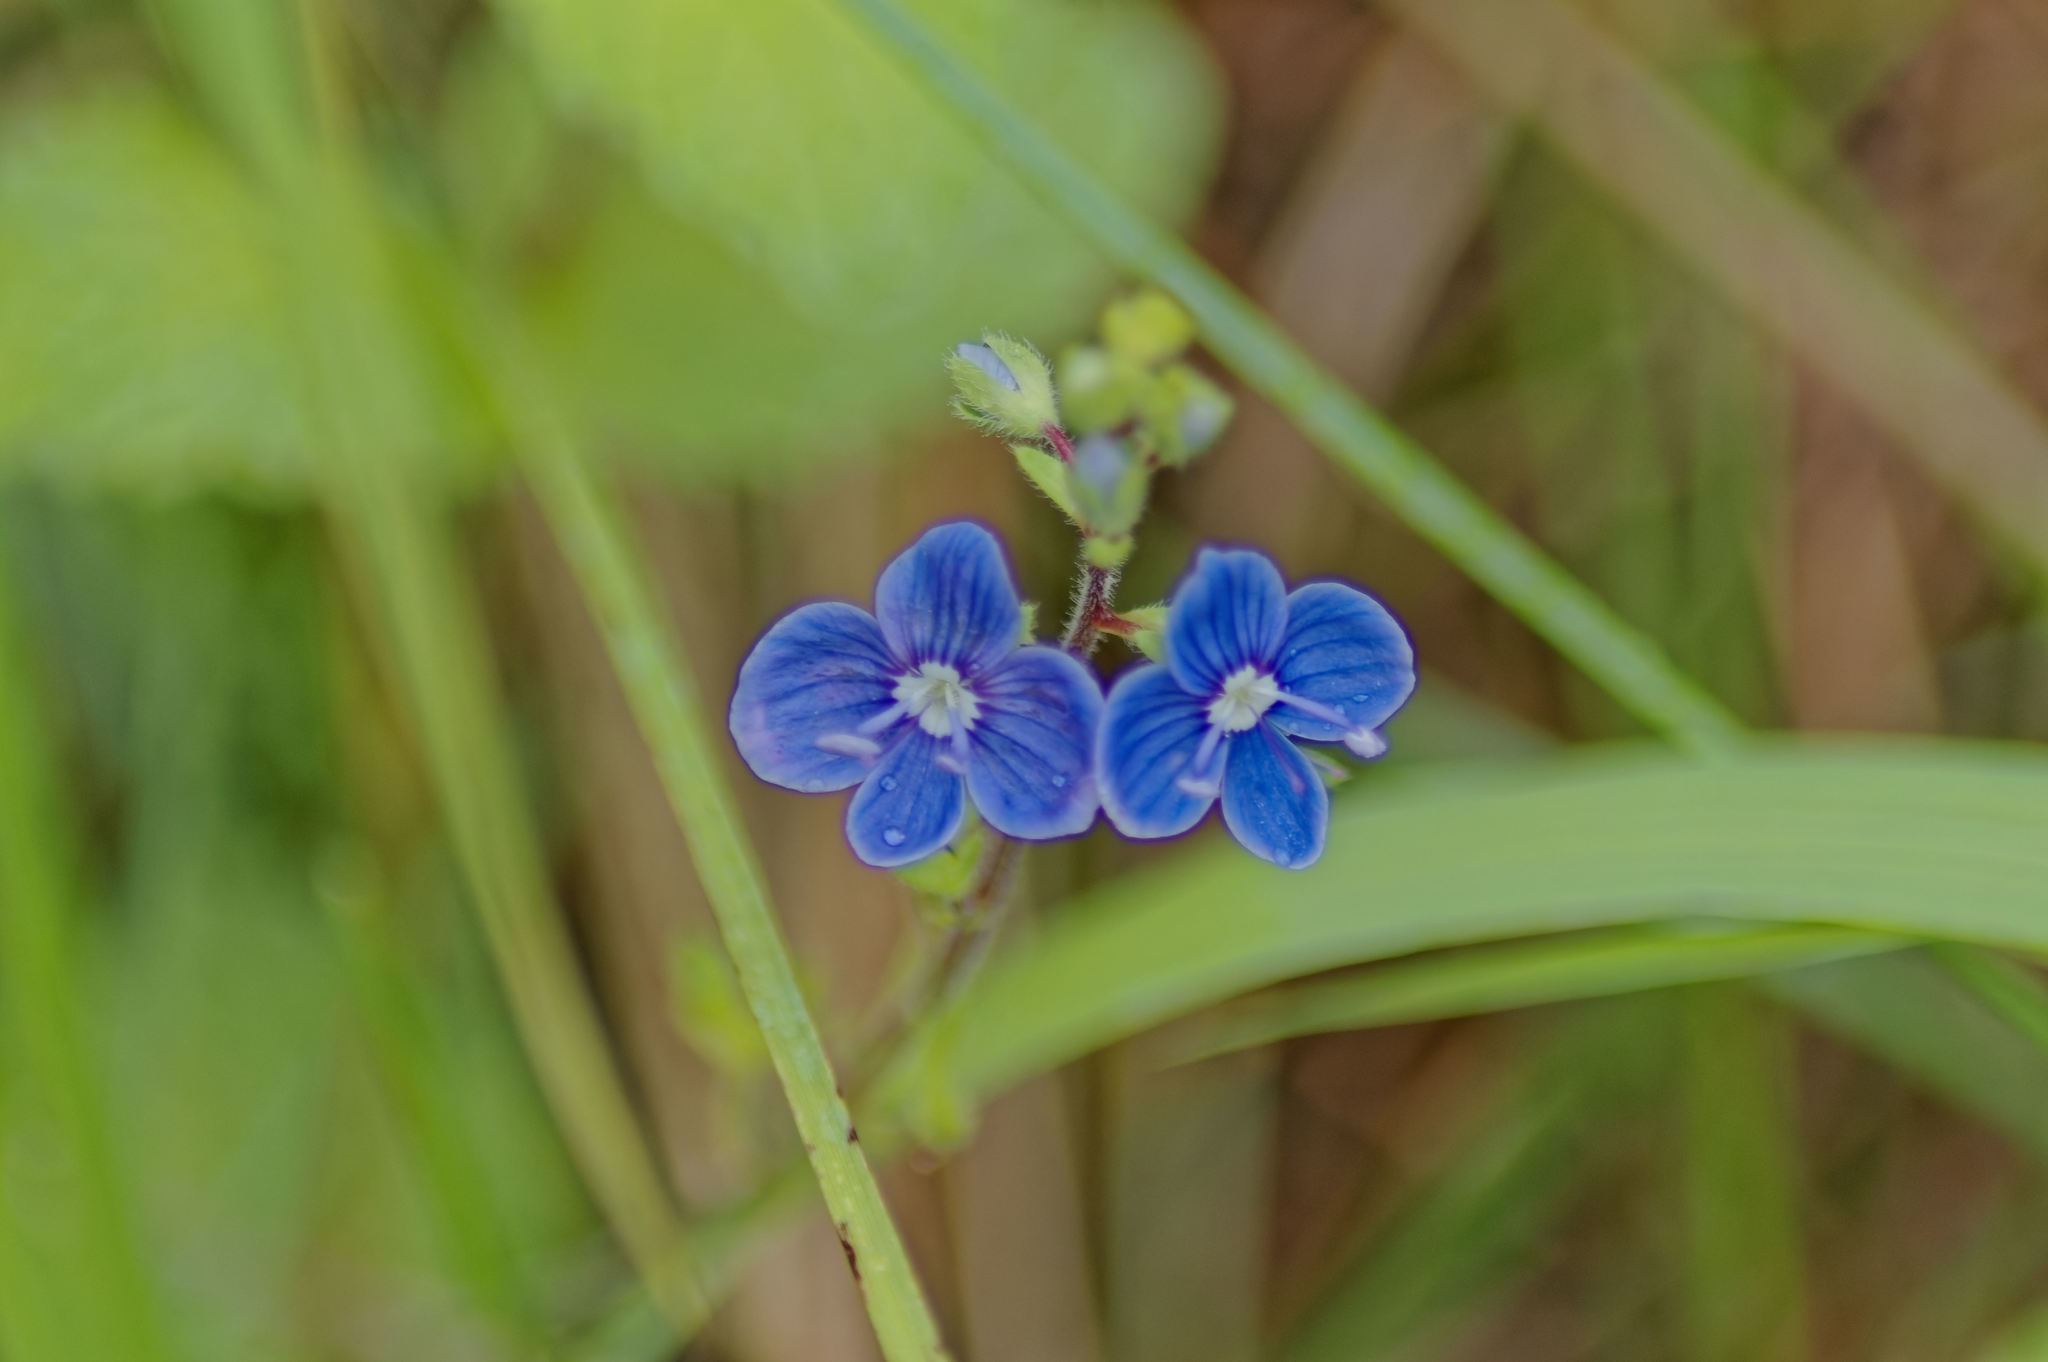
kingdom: Plantae
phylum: Tracheophyta
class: Magnoliopsida
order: Lamiales
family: Plantaginaceae
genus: Veronica
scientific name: Veronica chamaedrys
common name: Germander speedwell
